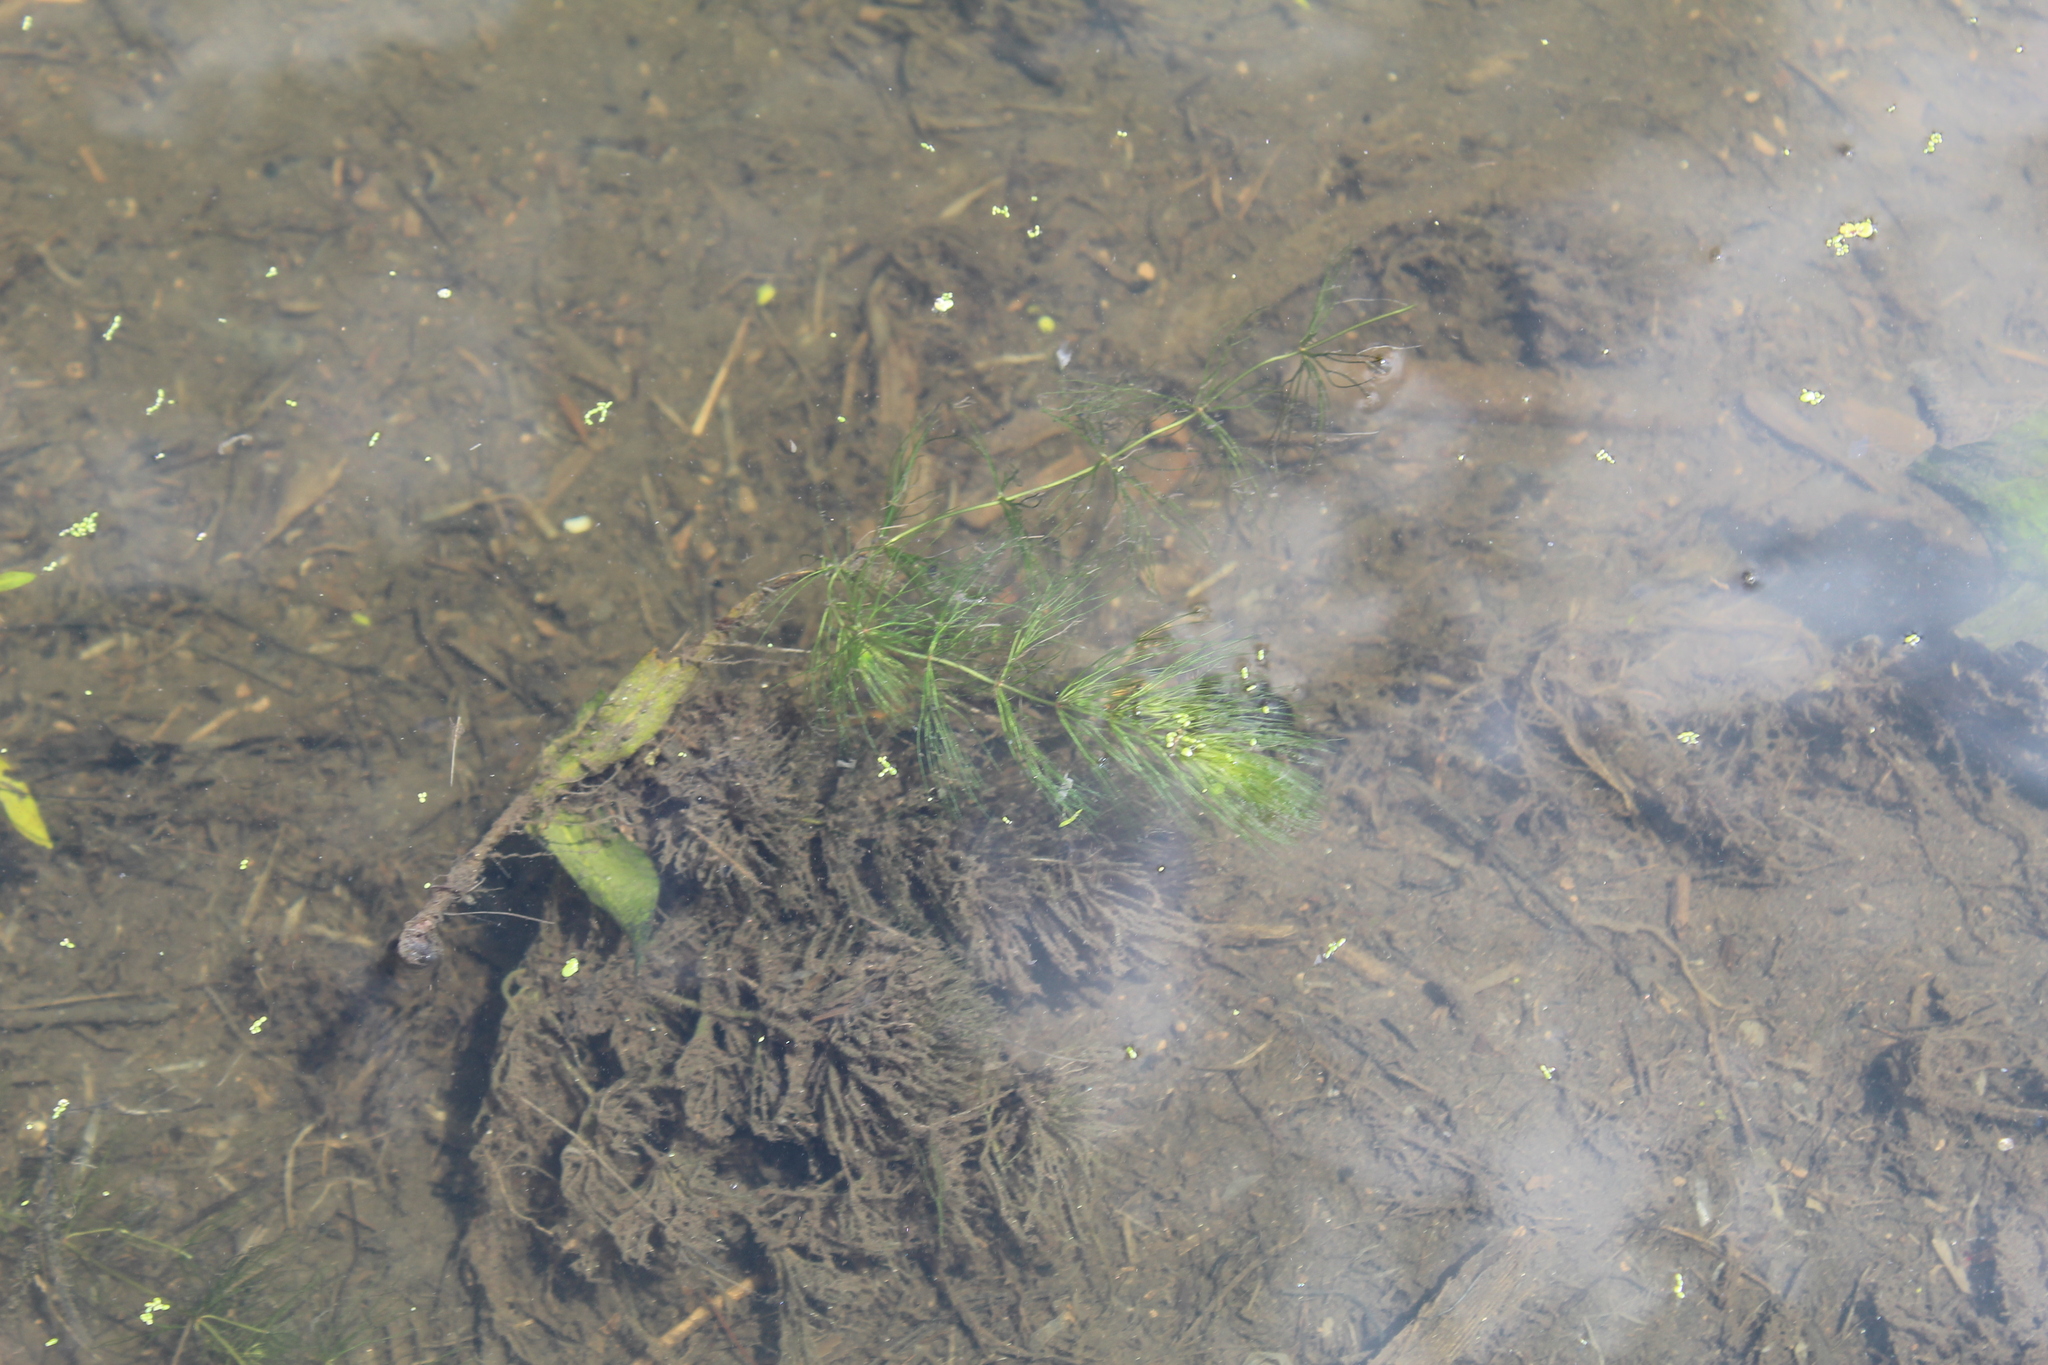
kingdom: Plantae
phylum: Tracheophyta
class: Magnoliopsida
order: Ceratophyllales
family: Ceratophyllaceae
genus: Ceratophyllum
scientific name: Ceratophyllum echinatum
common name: Prickly coontail
